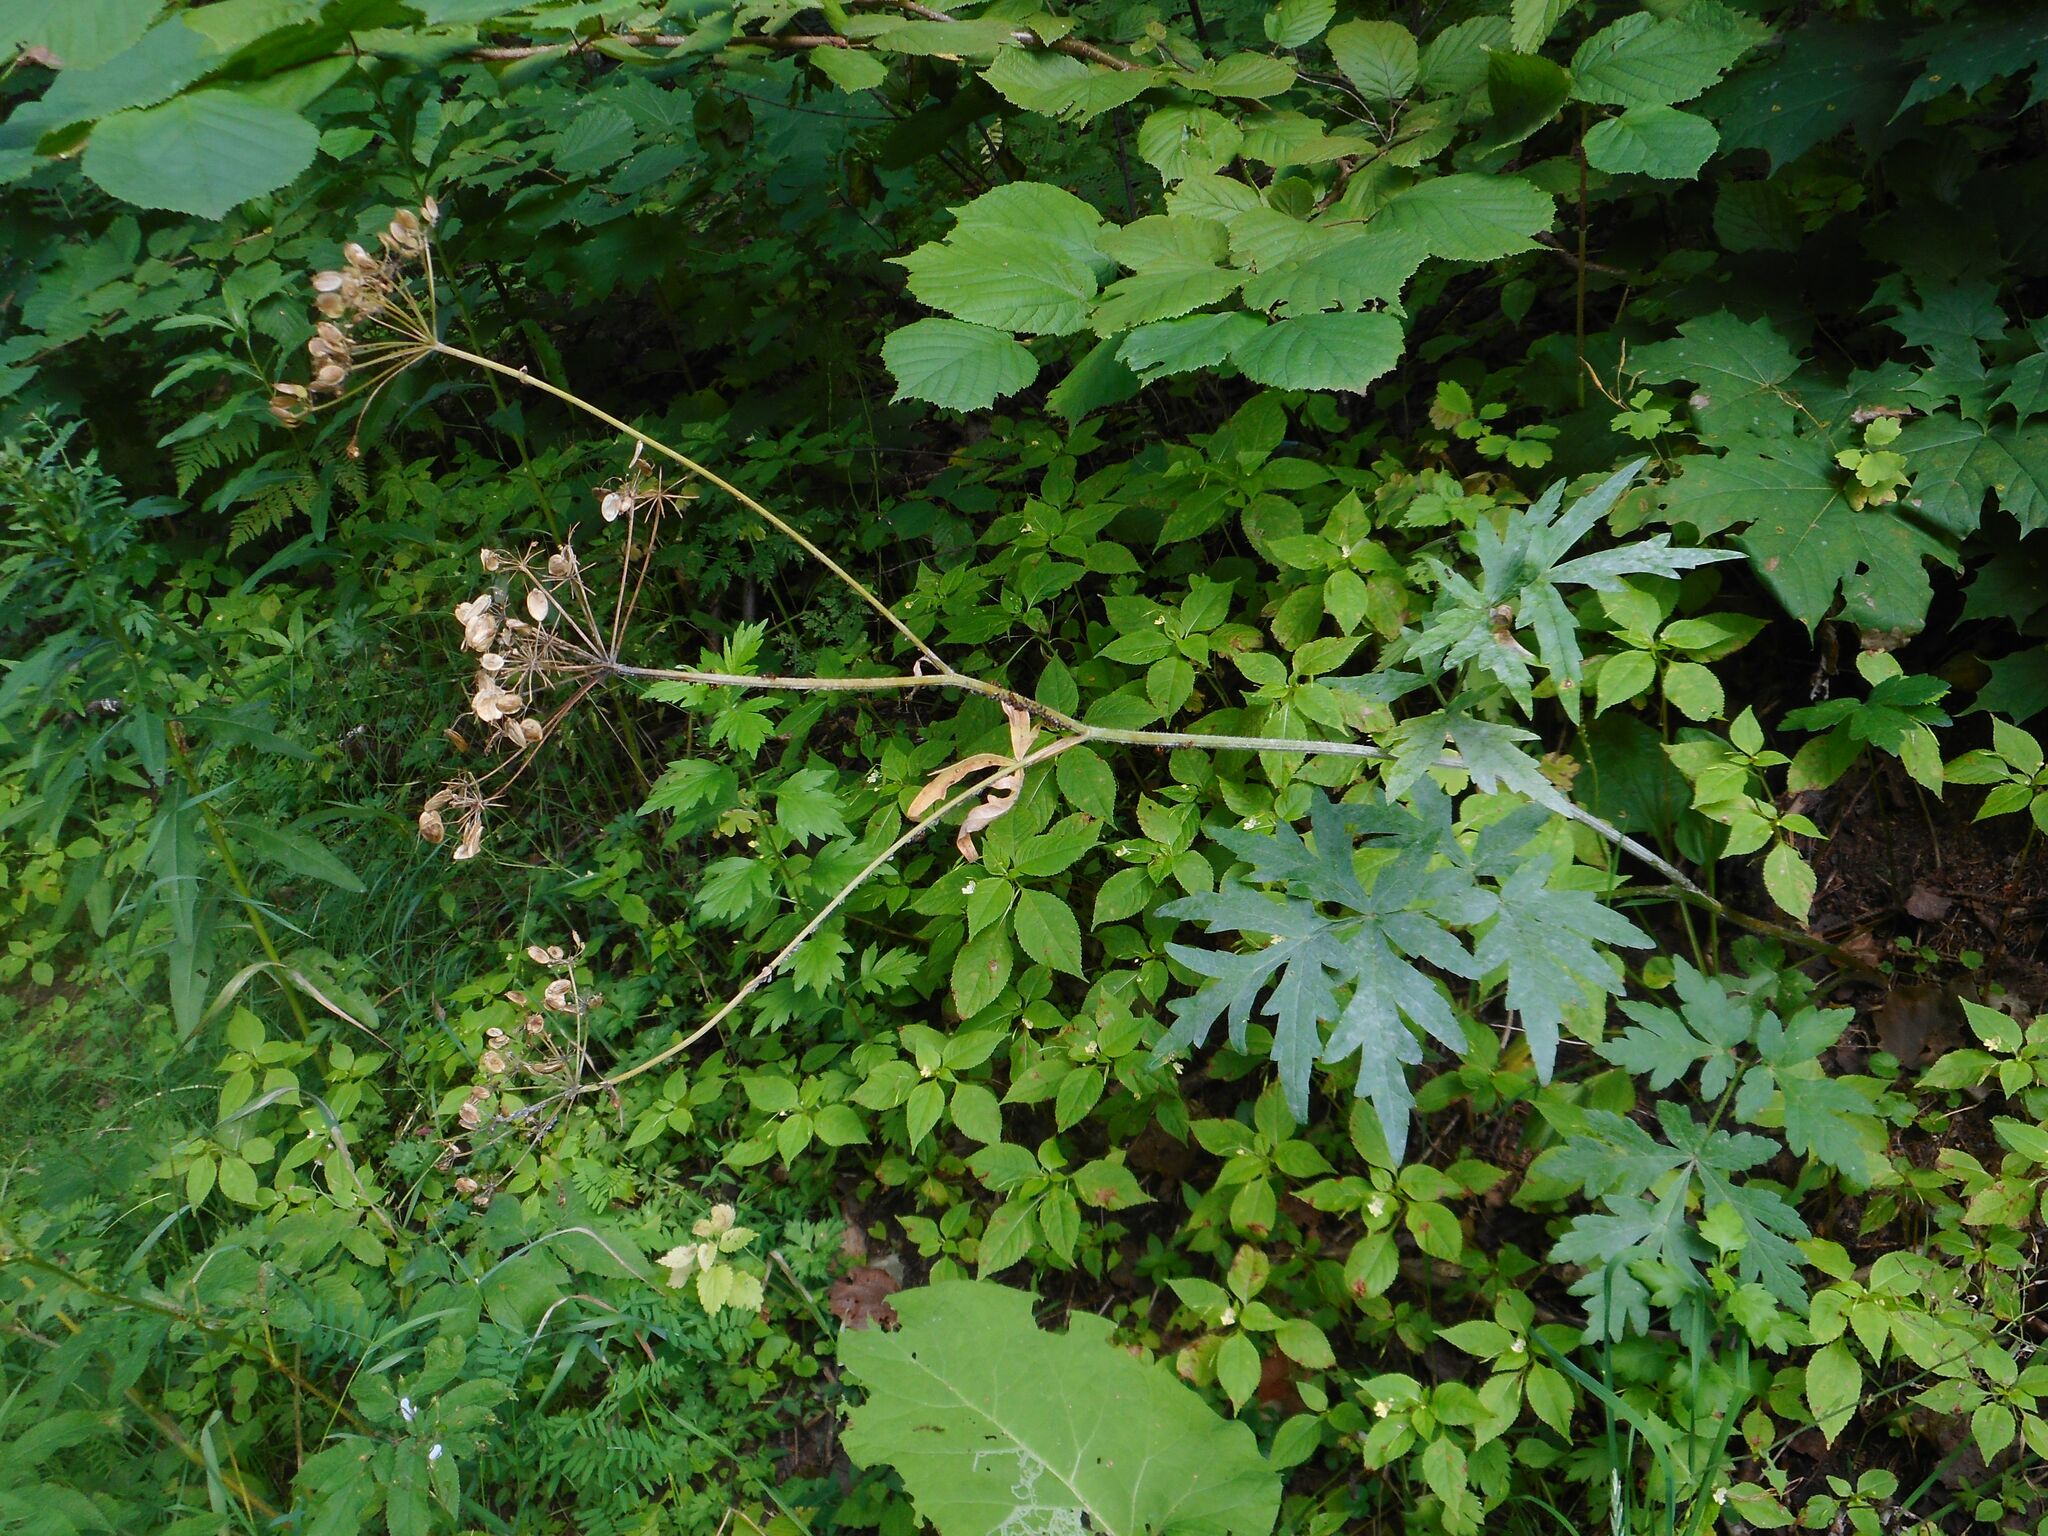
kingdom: Plantae
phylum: Tracheophyta
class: Magnoliopsida
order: Apiales
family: Apiaceae
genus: Heracleum
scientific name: Heracleum sphondylium
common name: Hogweed
